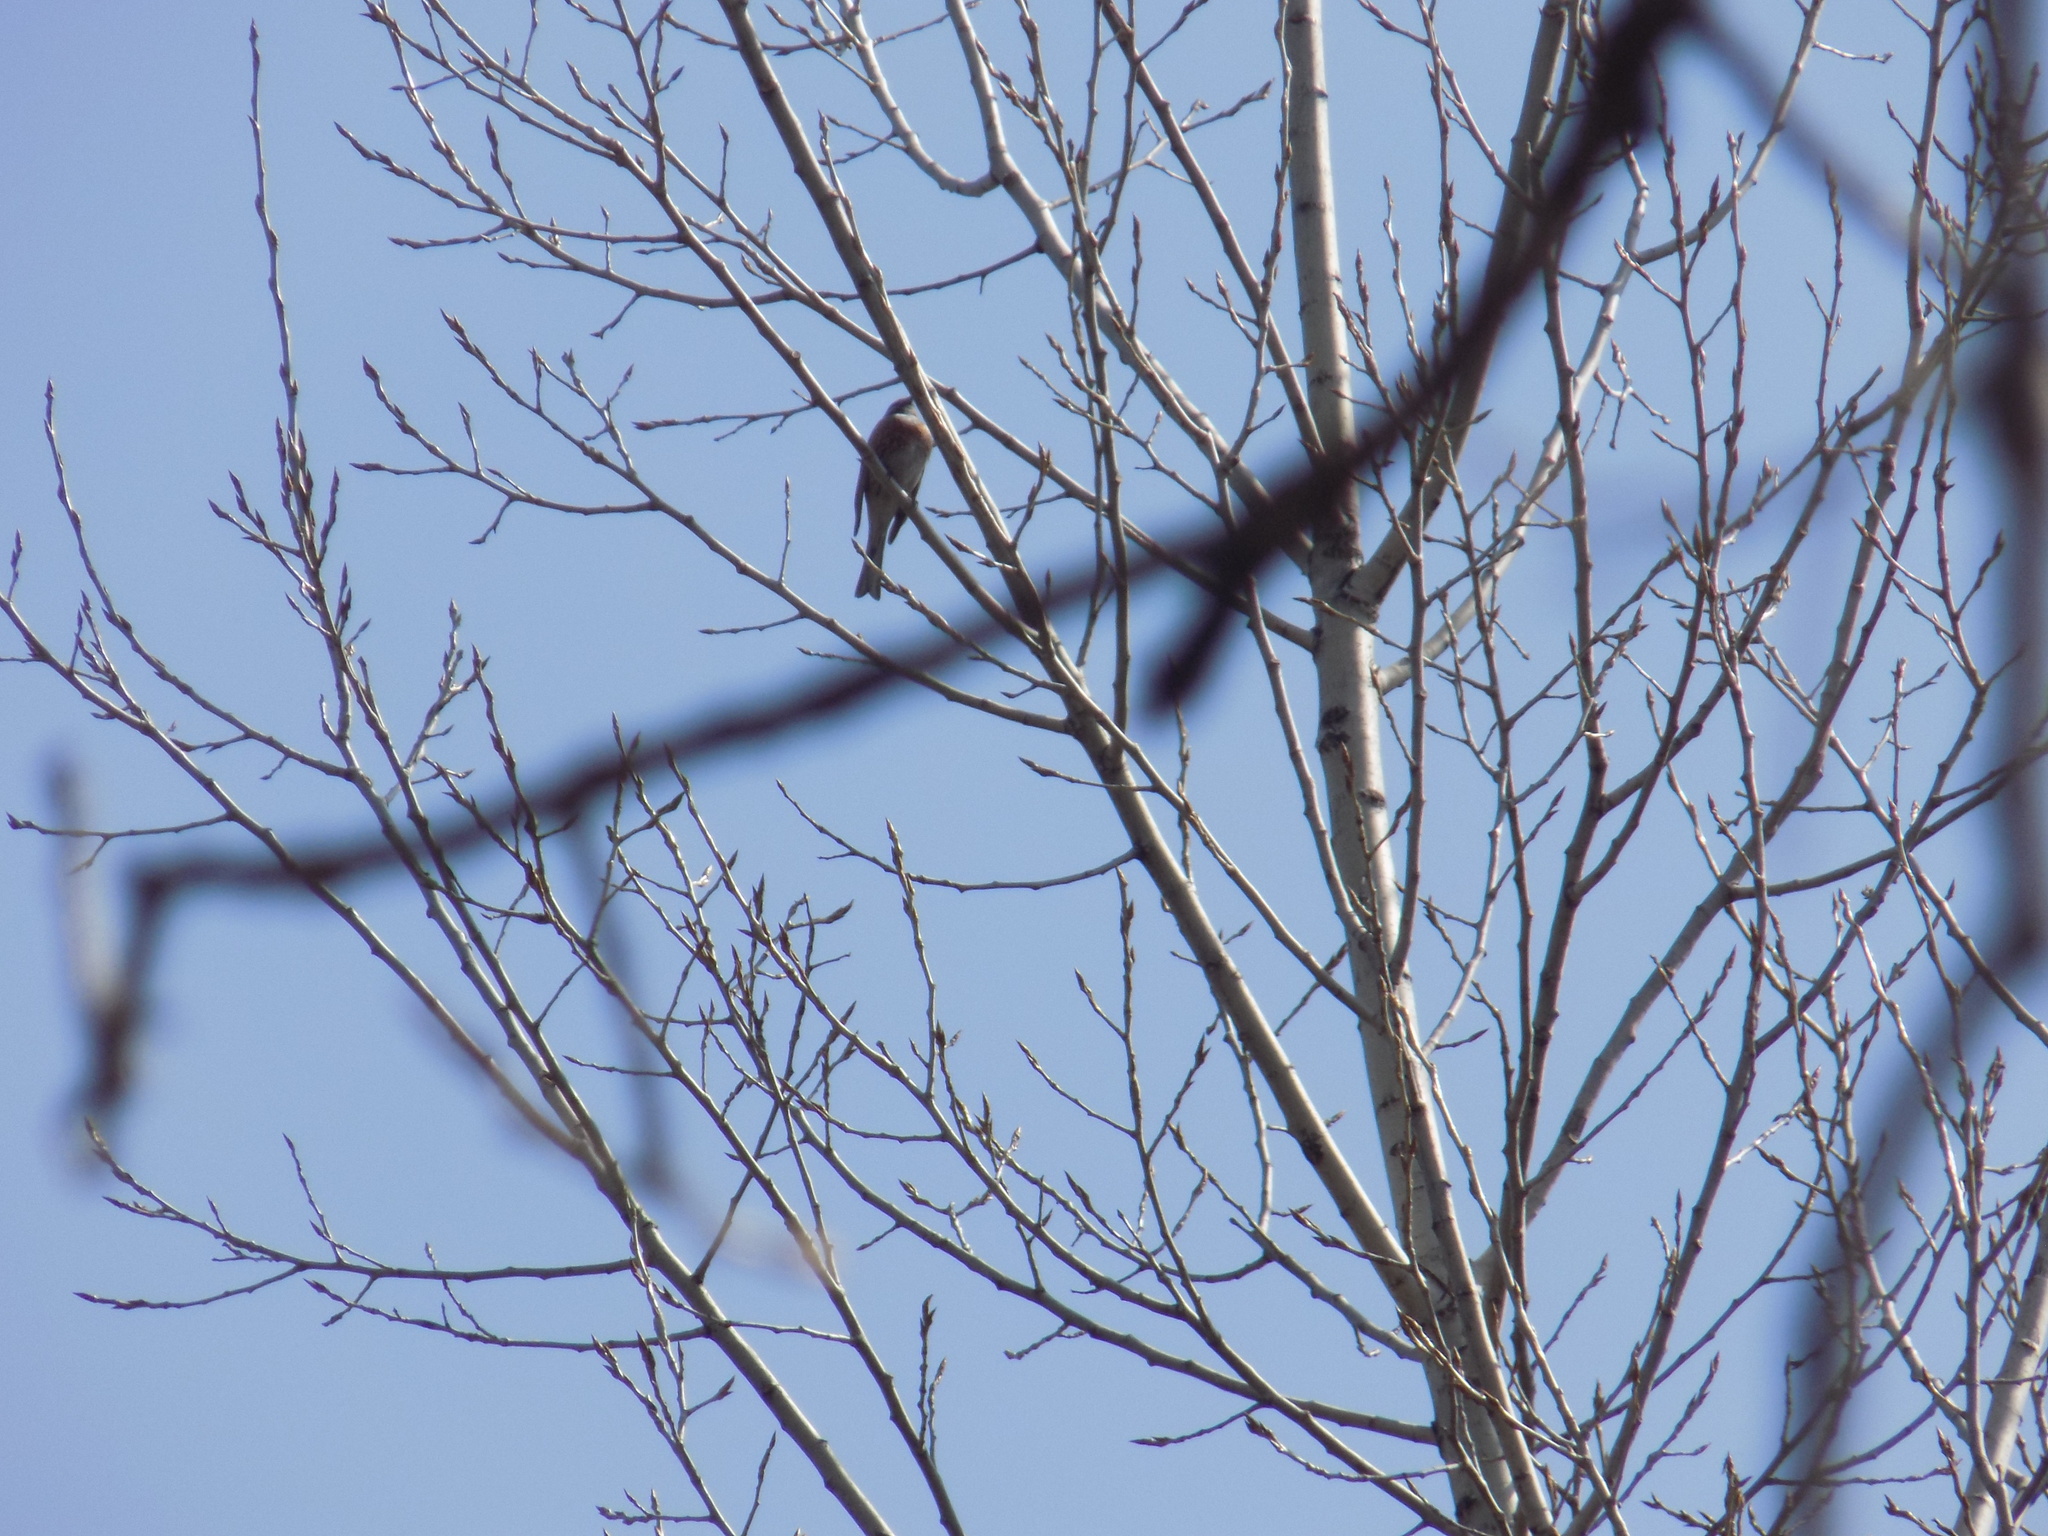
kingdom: Animalia
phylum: Chordata
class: Aves
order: Passeriformes
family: Emberizidae
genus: Emberiza
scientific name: Emberiza leucocephalos
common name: Pine bunting
